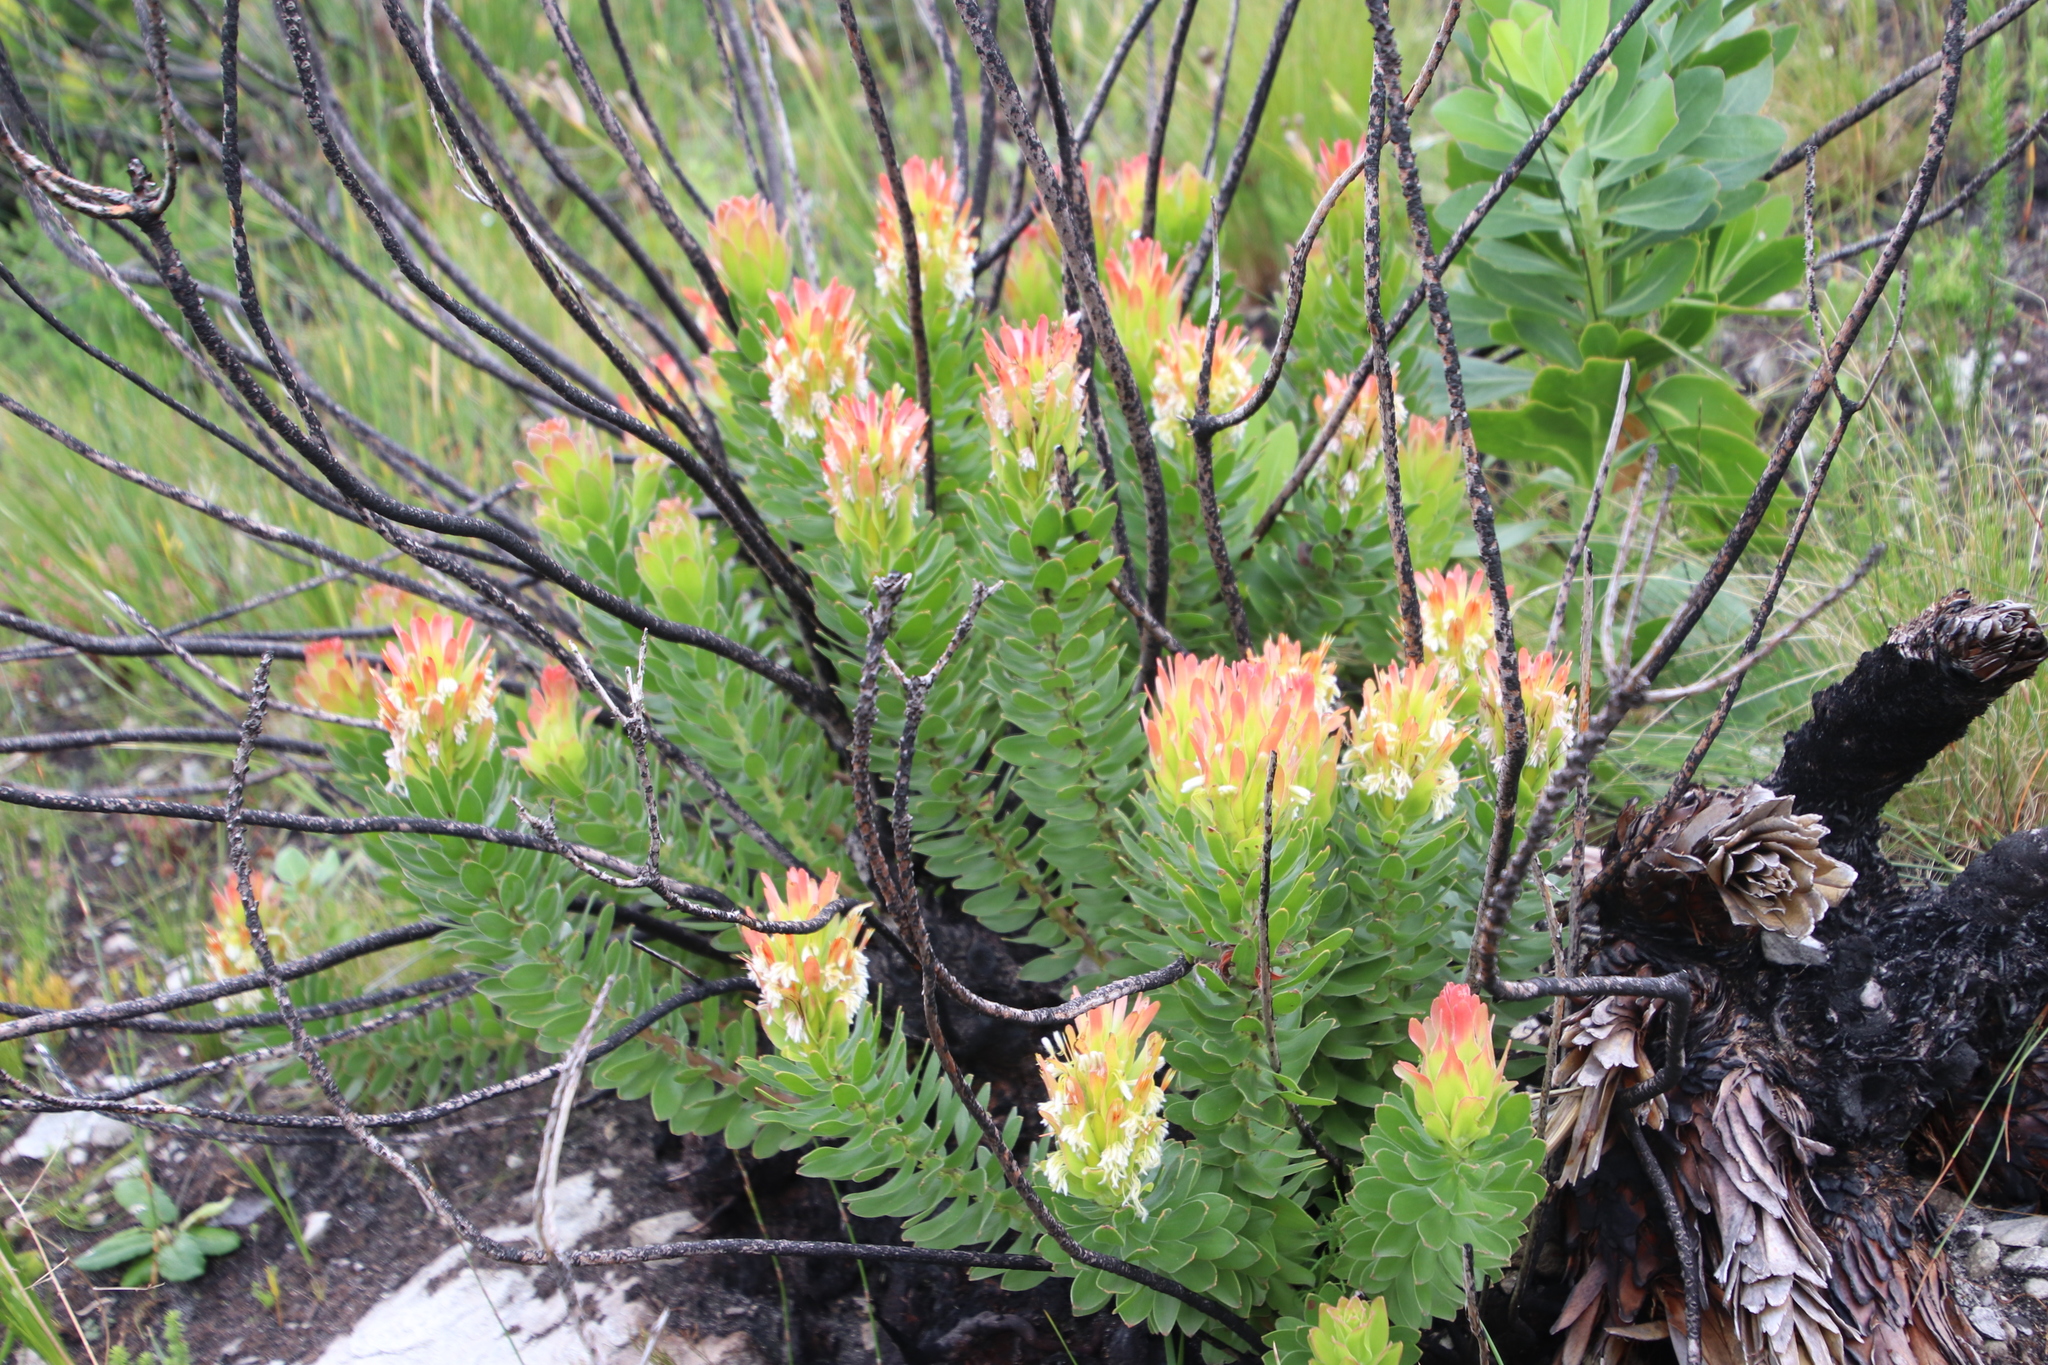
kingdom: Plantae
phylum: Tracheophyta
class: Magnoliopsida
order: Proteales
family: Proteaceae
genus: Mimetes
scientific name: Mimetes cucullatus
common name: Common pagoda
